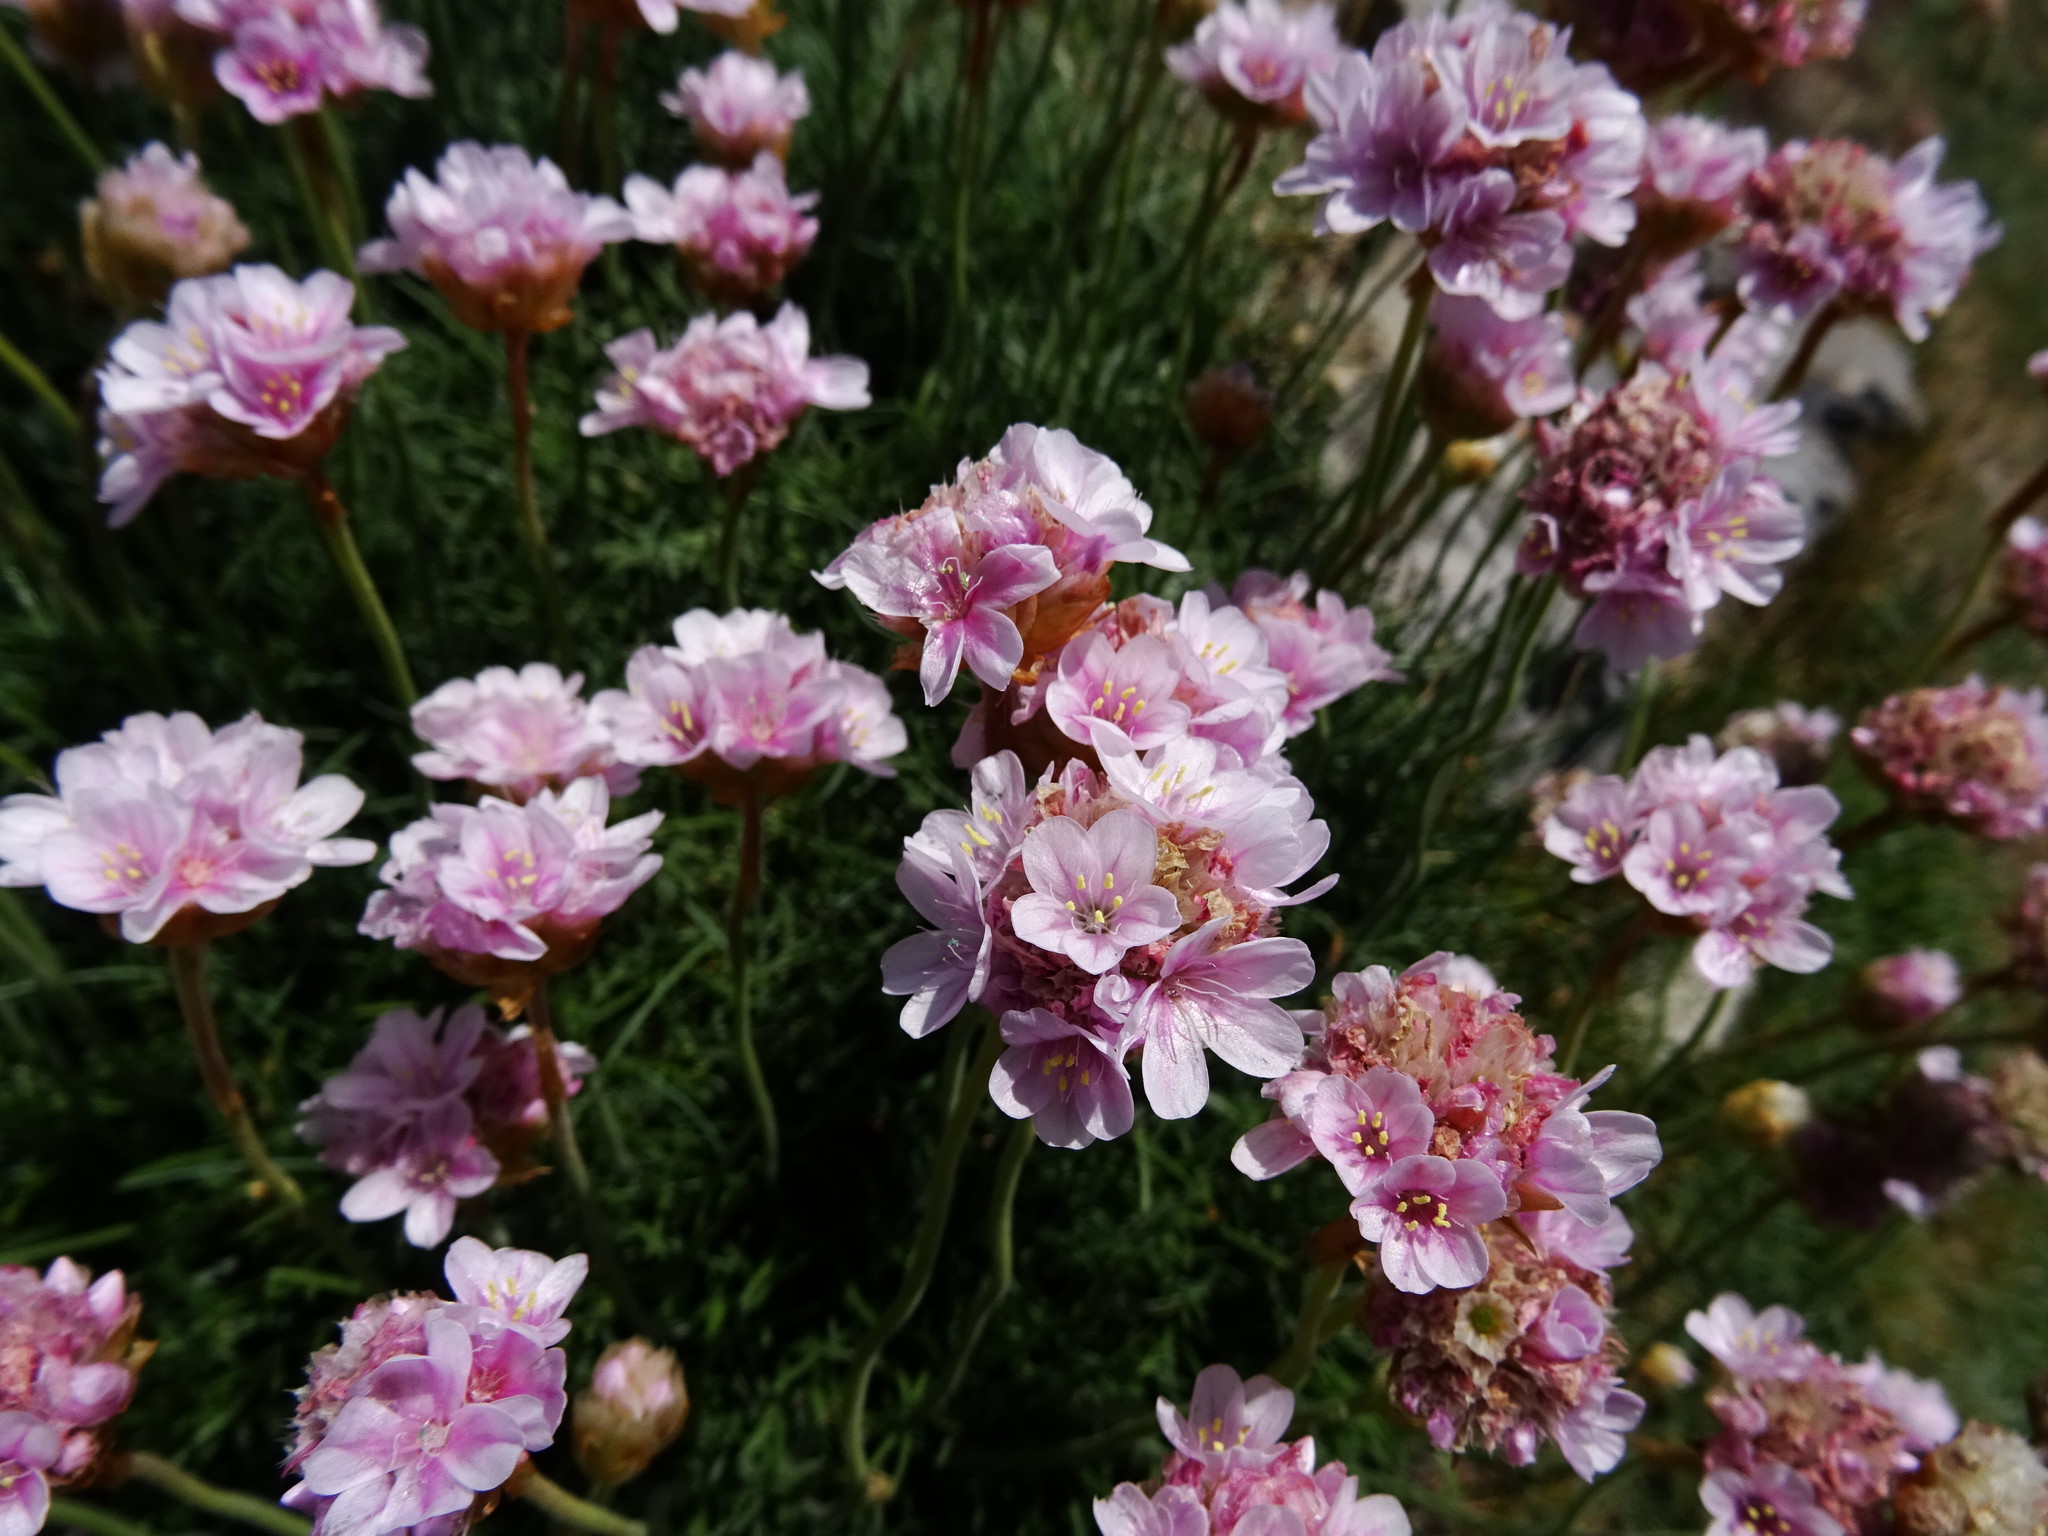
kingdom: Plantae
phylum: Tracheophyta
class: Magnoliopsida
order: Caryophyllales
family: Plumbaginaceae
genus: Armeria
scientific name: Armeria maritima
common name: Thrift
